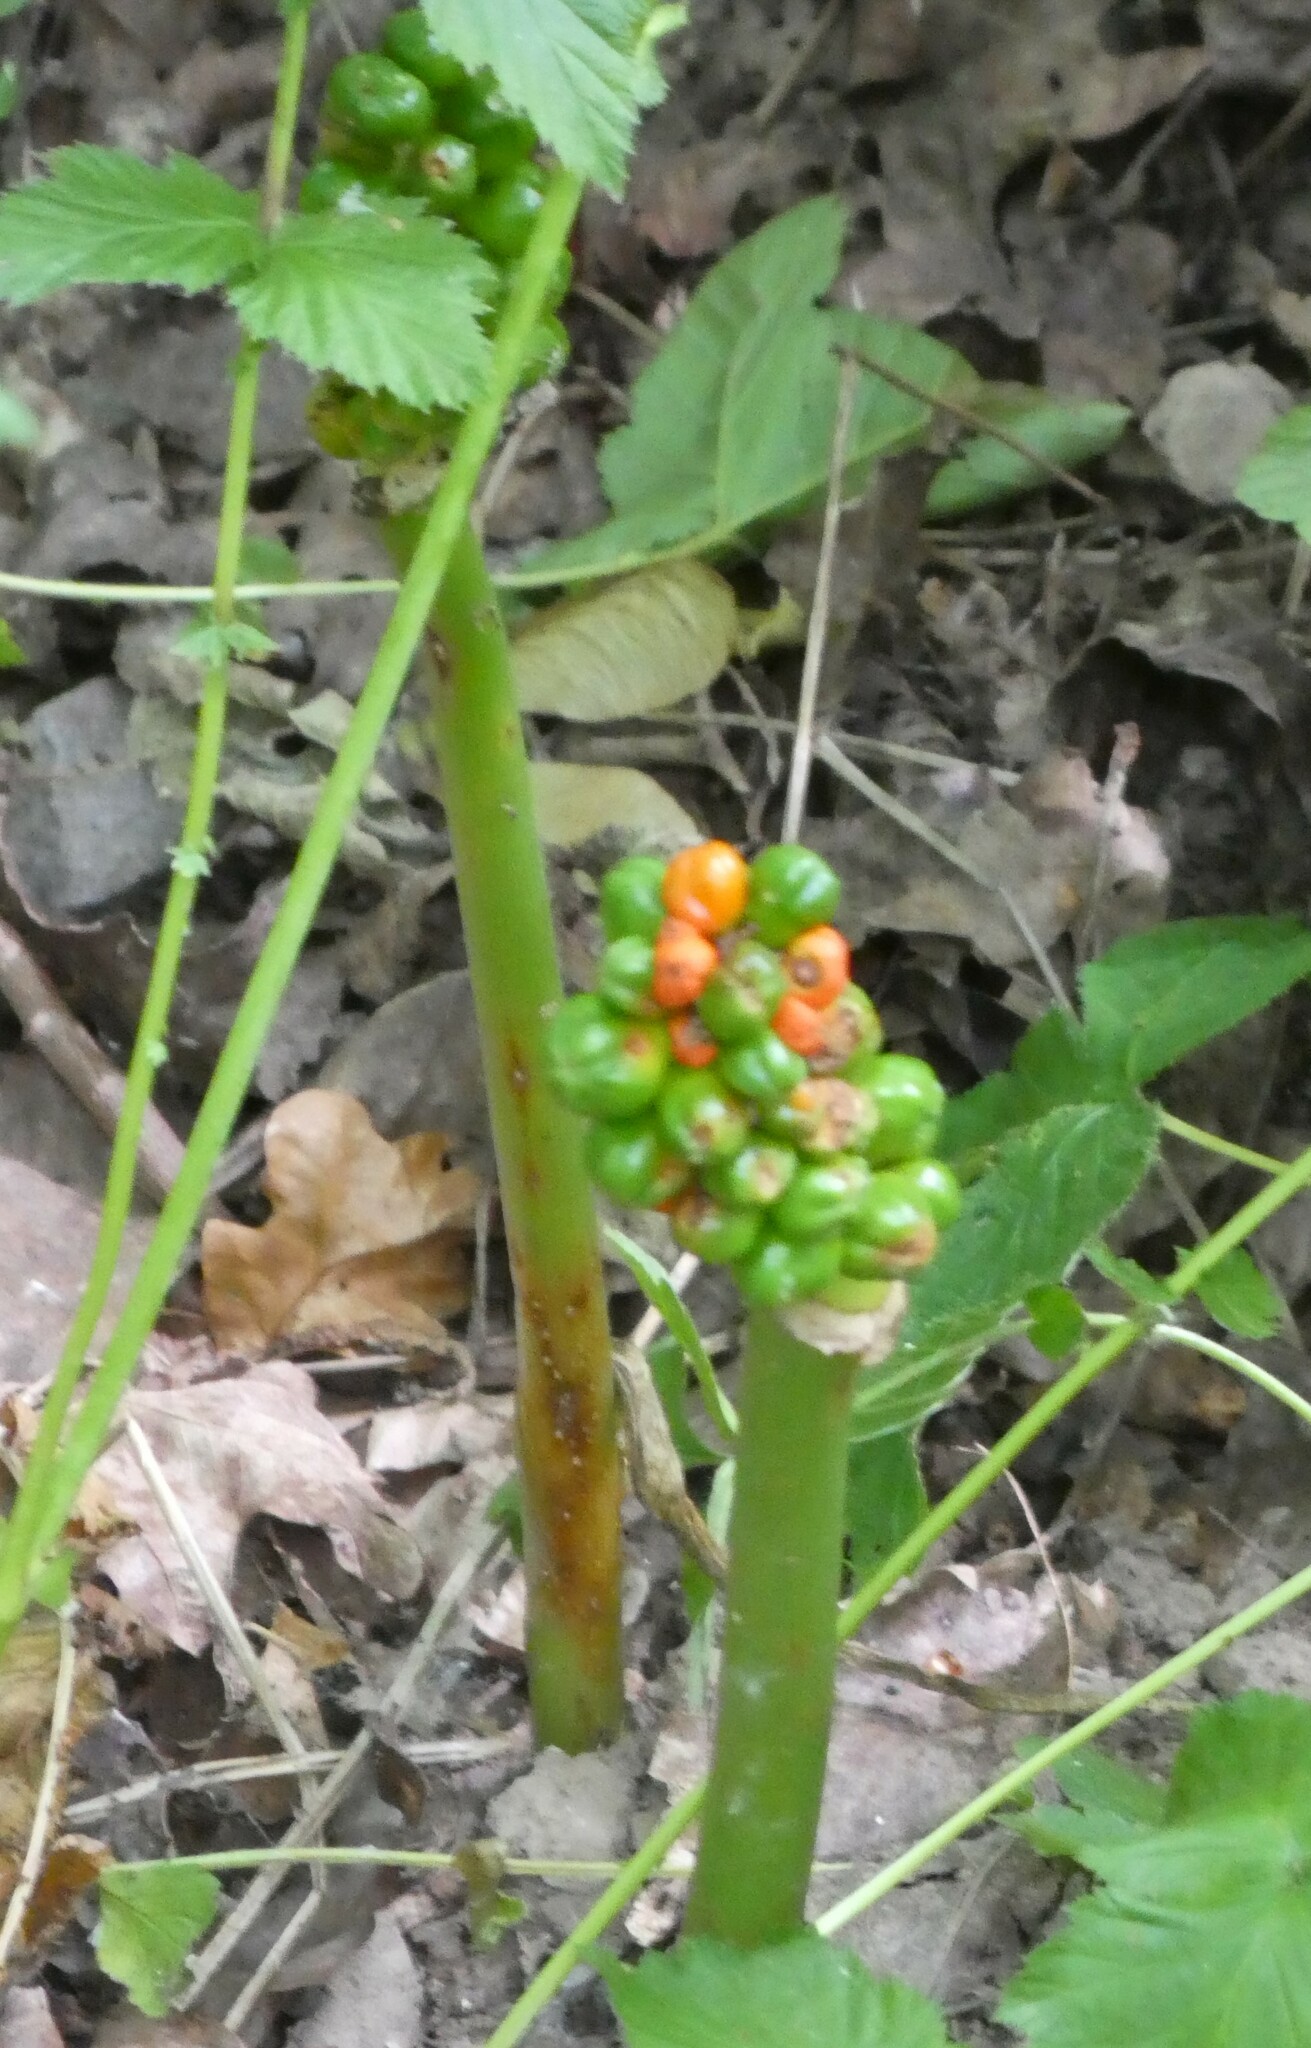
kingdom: Plantae
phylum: Tracheophyta
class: Liliopsida
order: Alismatales
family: Araceae
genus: Arum
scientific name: Arum maculatum
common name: Lords-and-ladies
